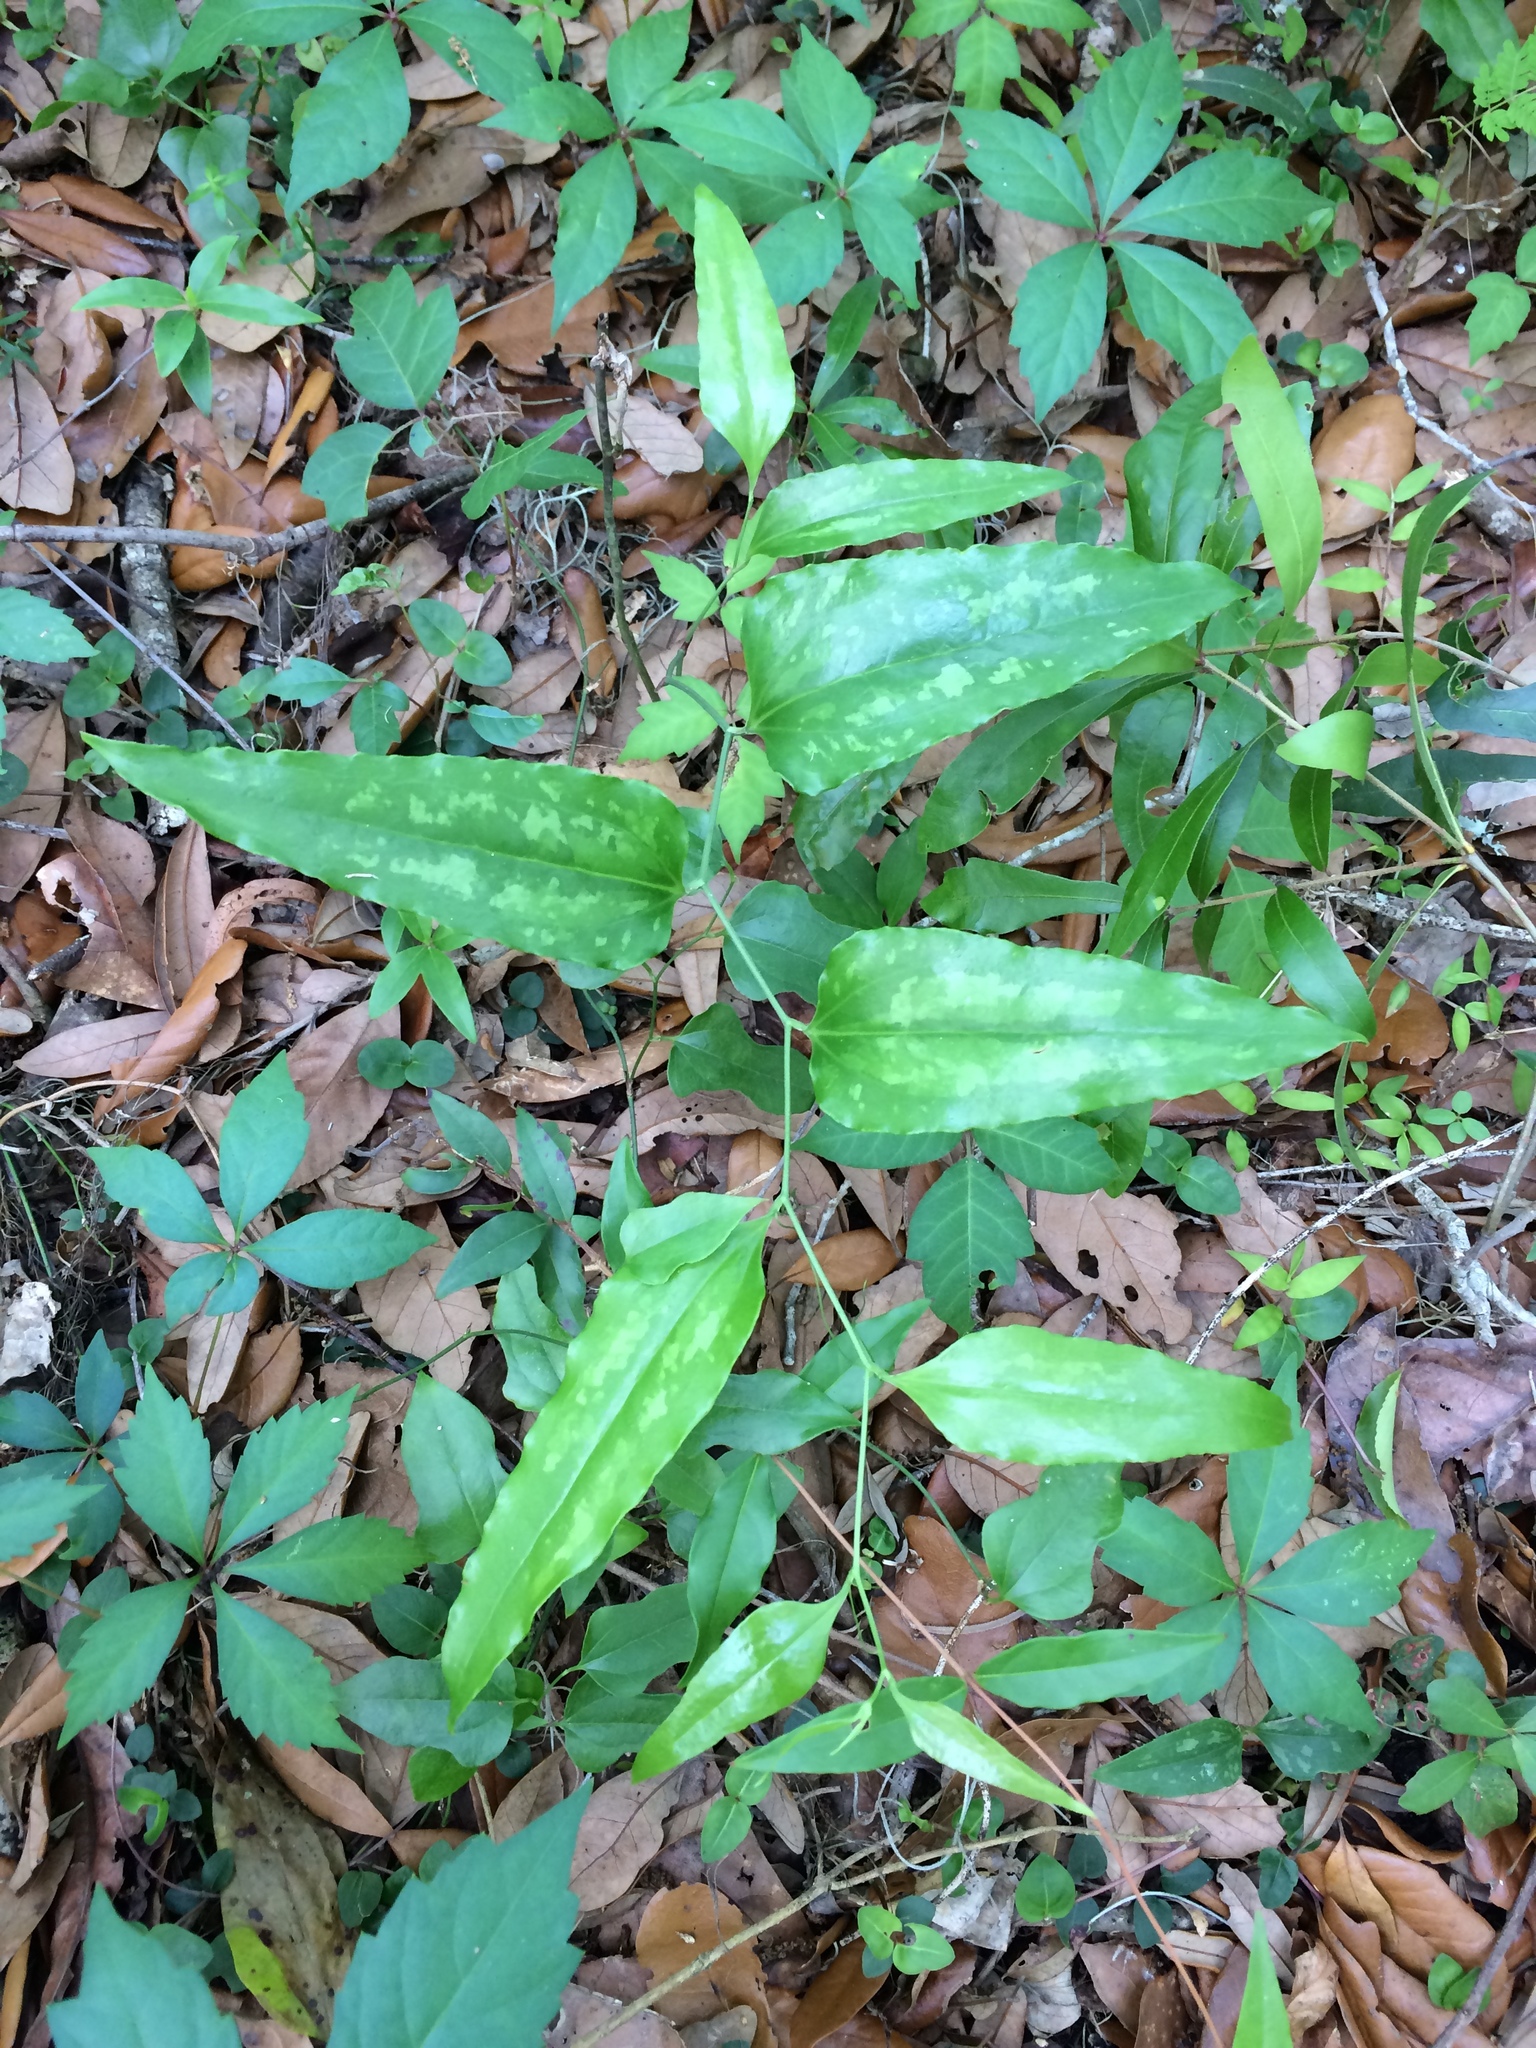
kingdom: Plantae
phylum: Tracheophyta
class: Liliopsida
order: Liliales
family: Smilacaceae
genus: Smilax
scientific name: Smilax maritima
